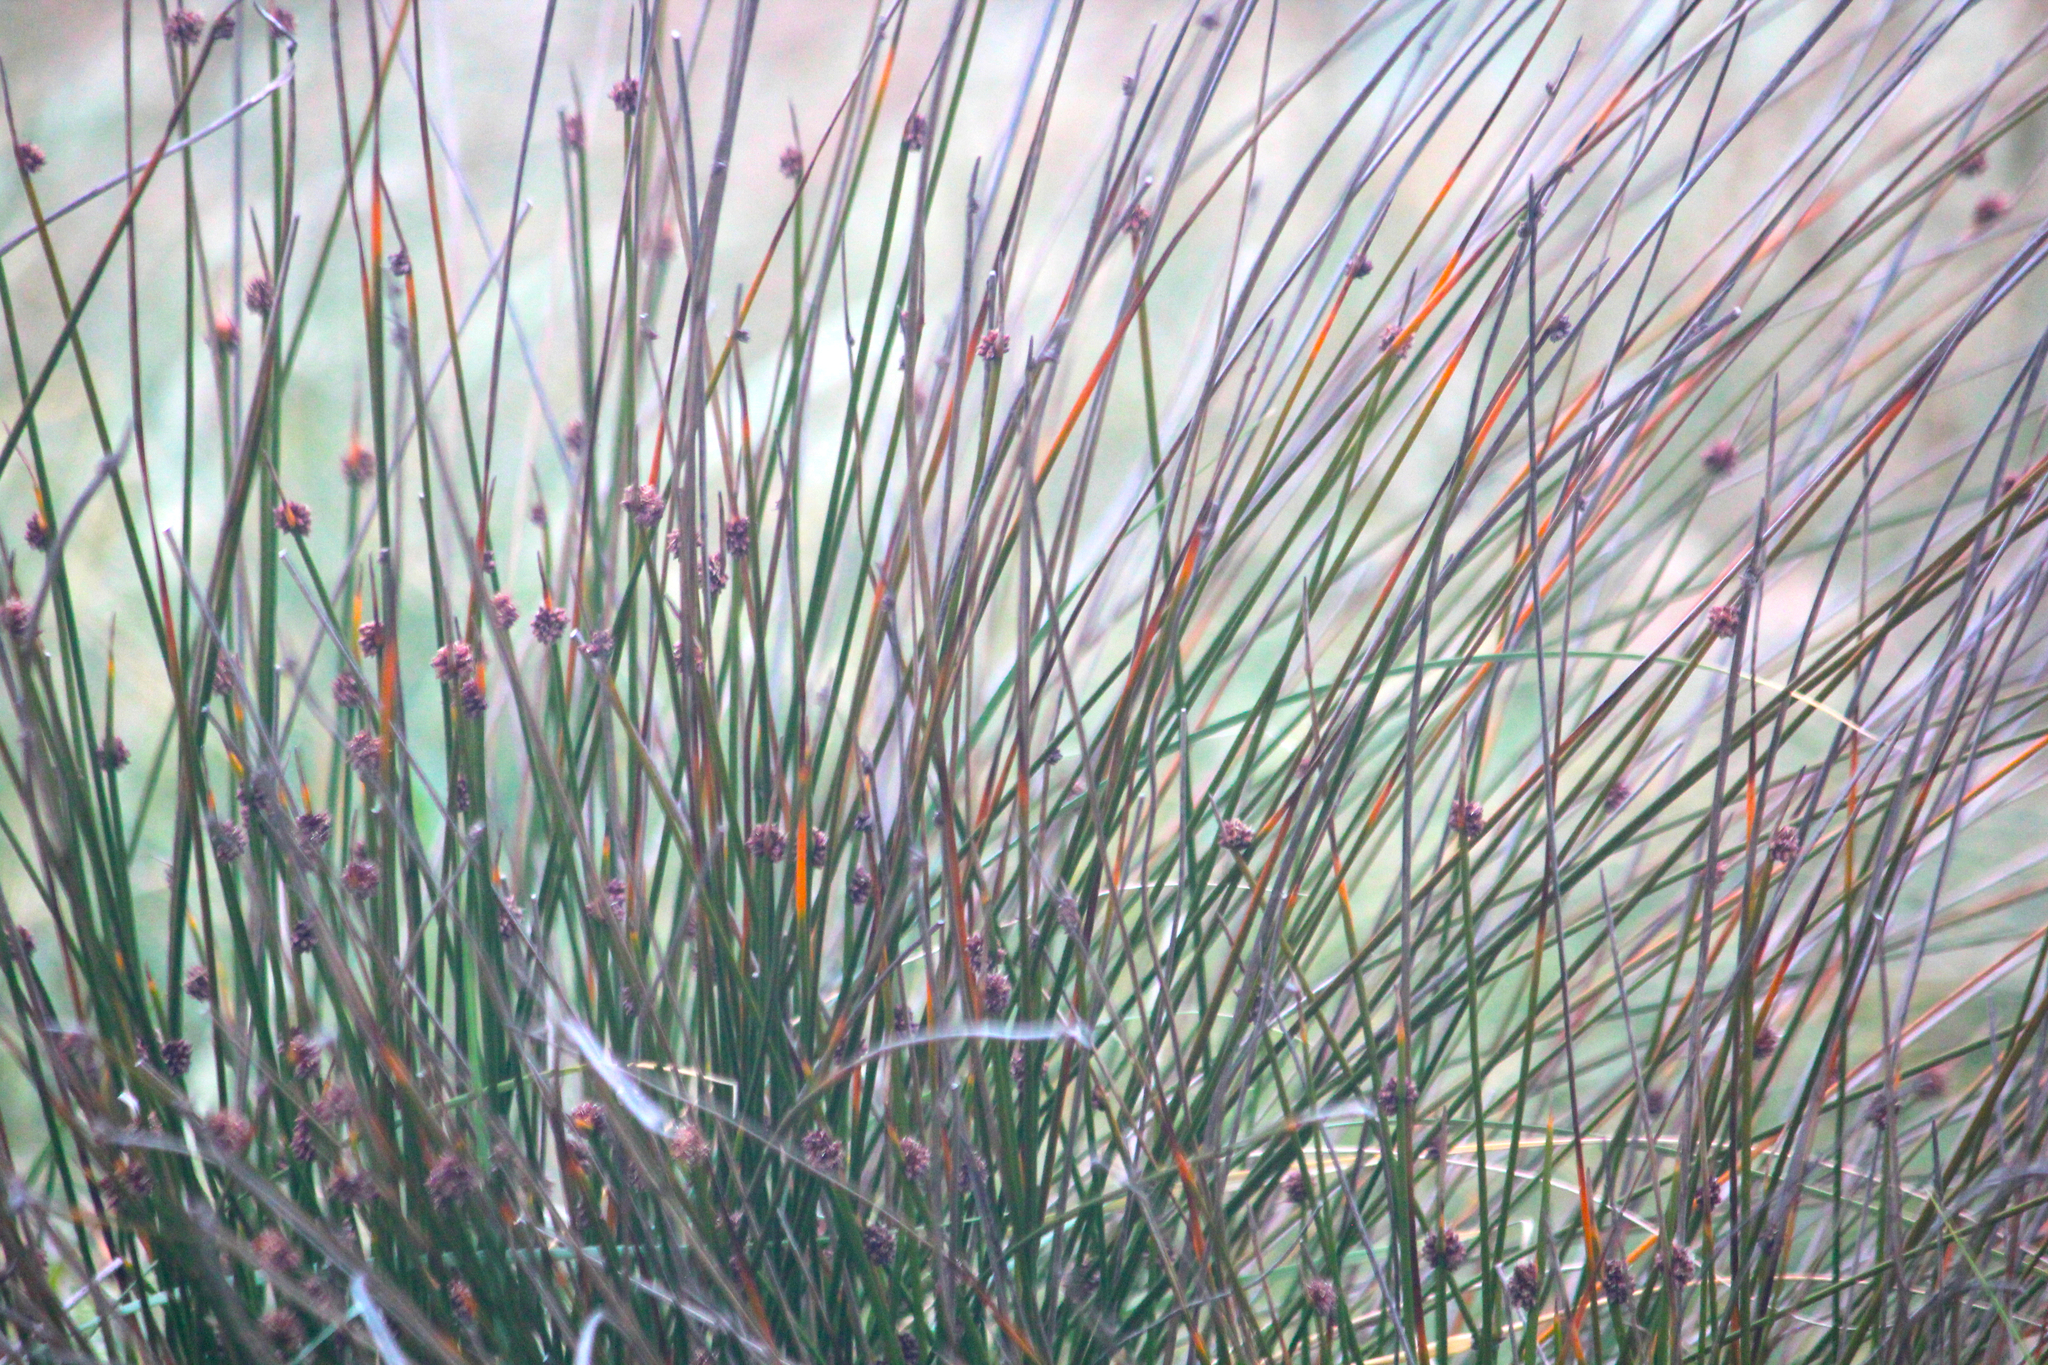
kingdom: Plantae
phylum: Tracheophyta
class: Liliopsida
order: Poales
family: Cyperaceae
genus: Ficinia
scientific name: Ficinia nodosa
